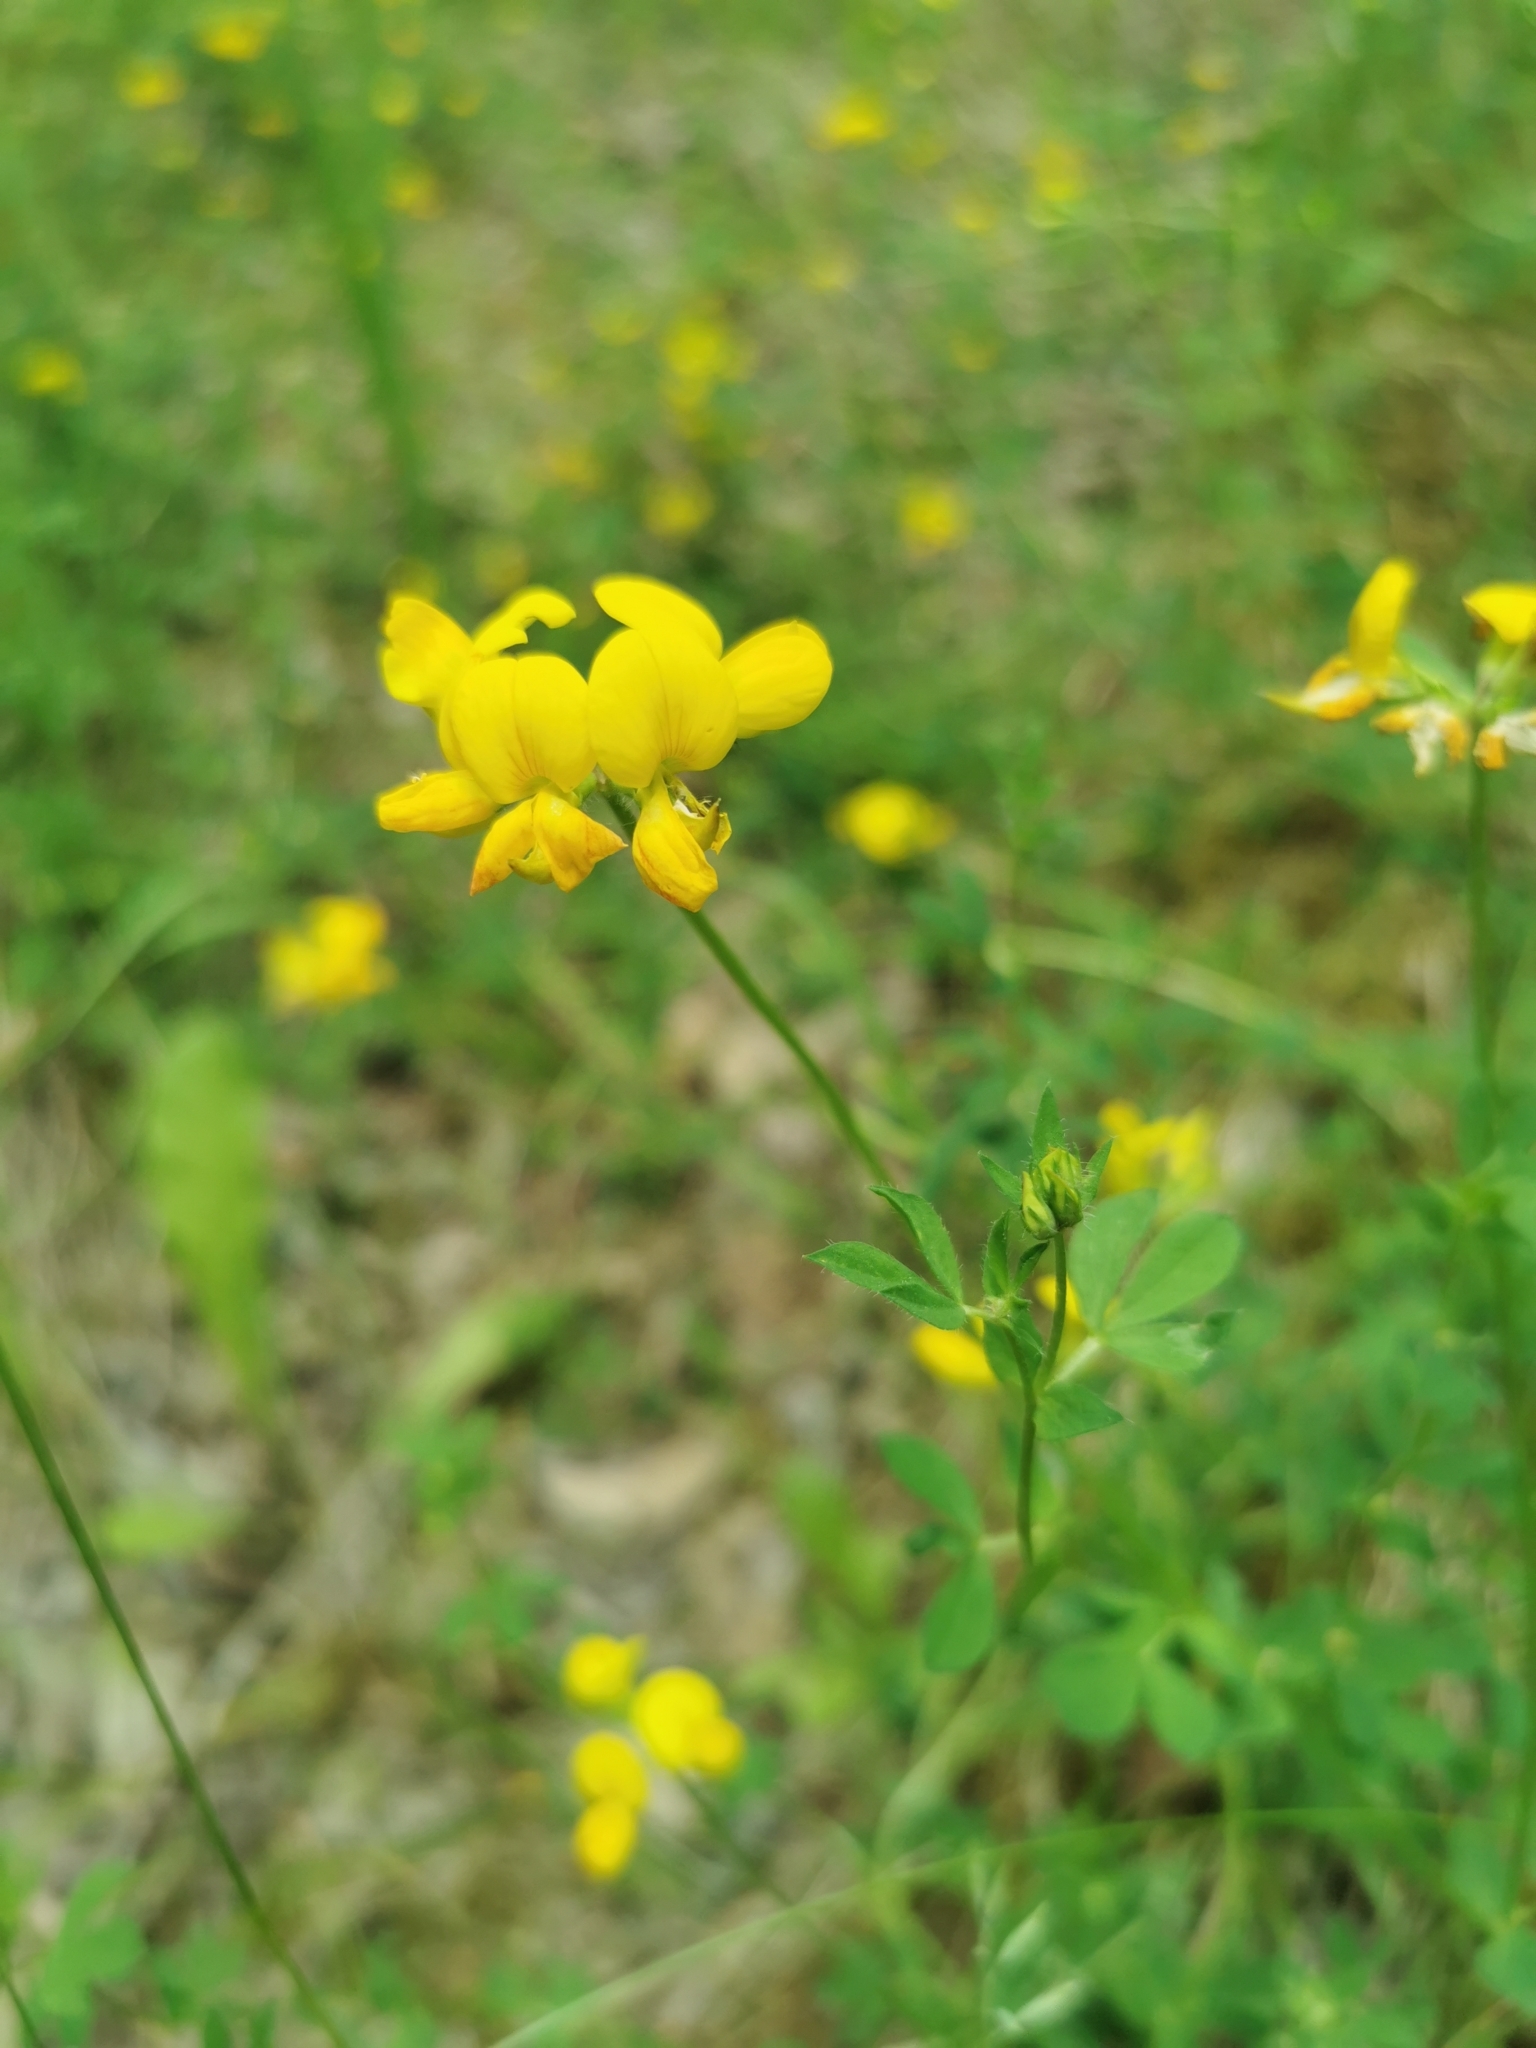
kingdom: Plantae
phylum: Tracheophyta
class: Magnoliopsida
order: Fabales
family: Fabaceae
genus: Lotus
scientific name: Lotus corniculatus
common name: Common bird's-foot-trefoil
